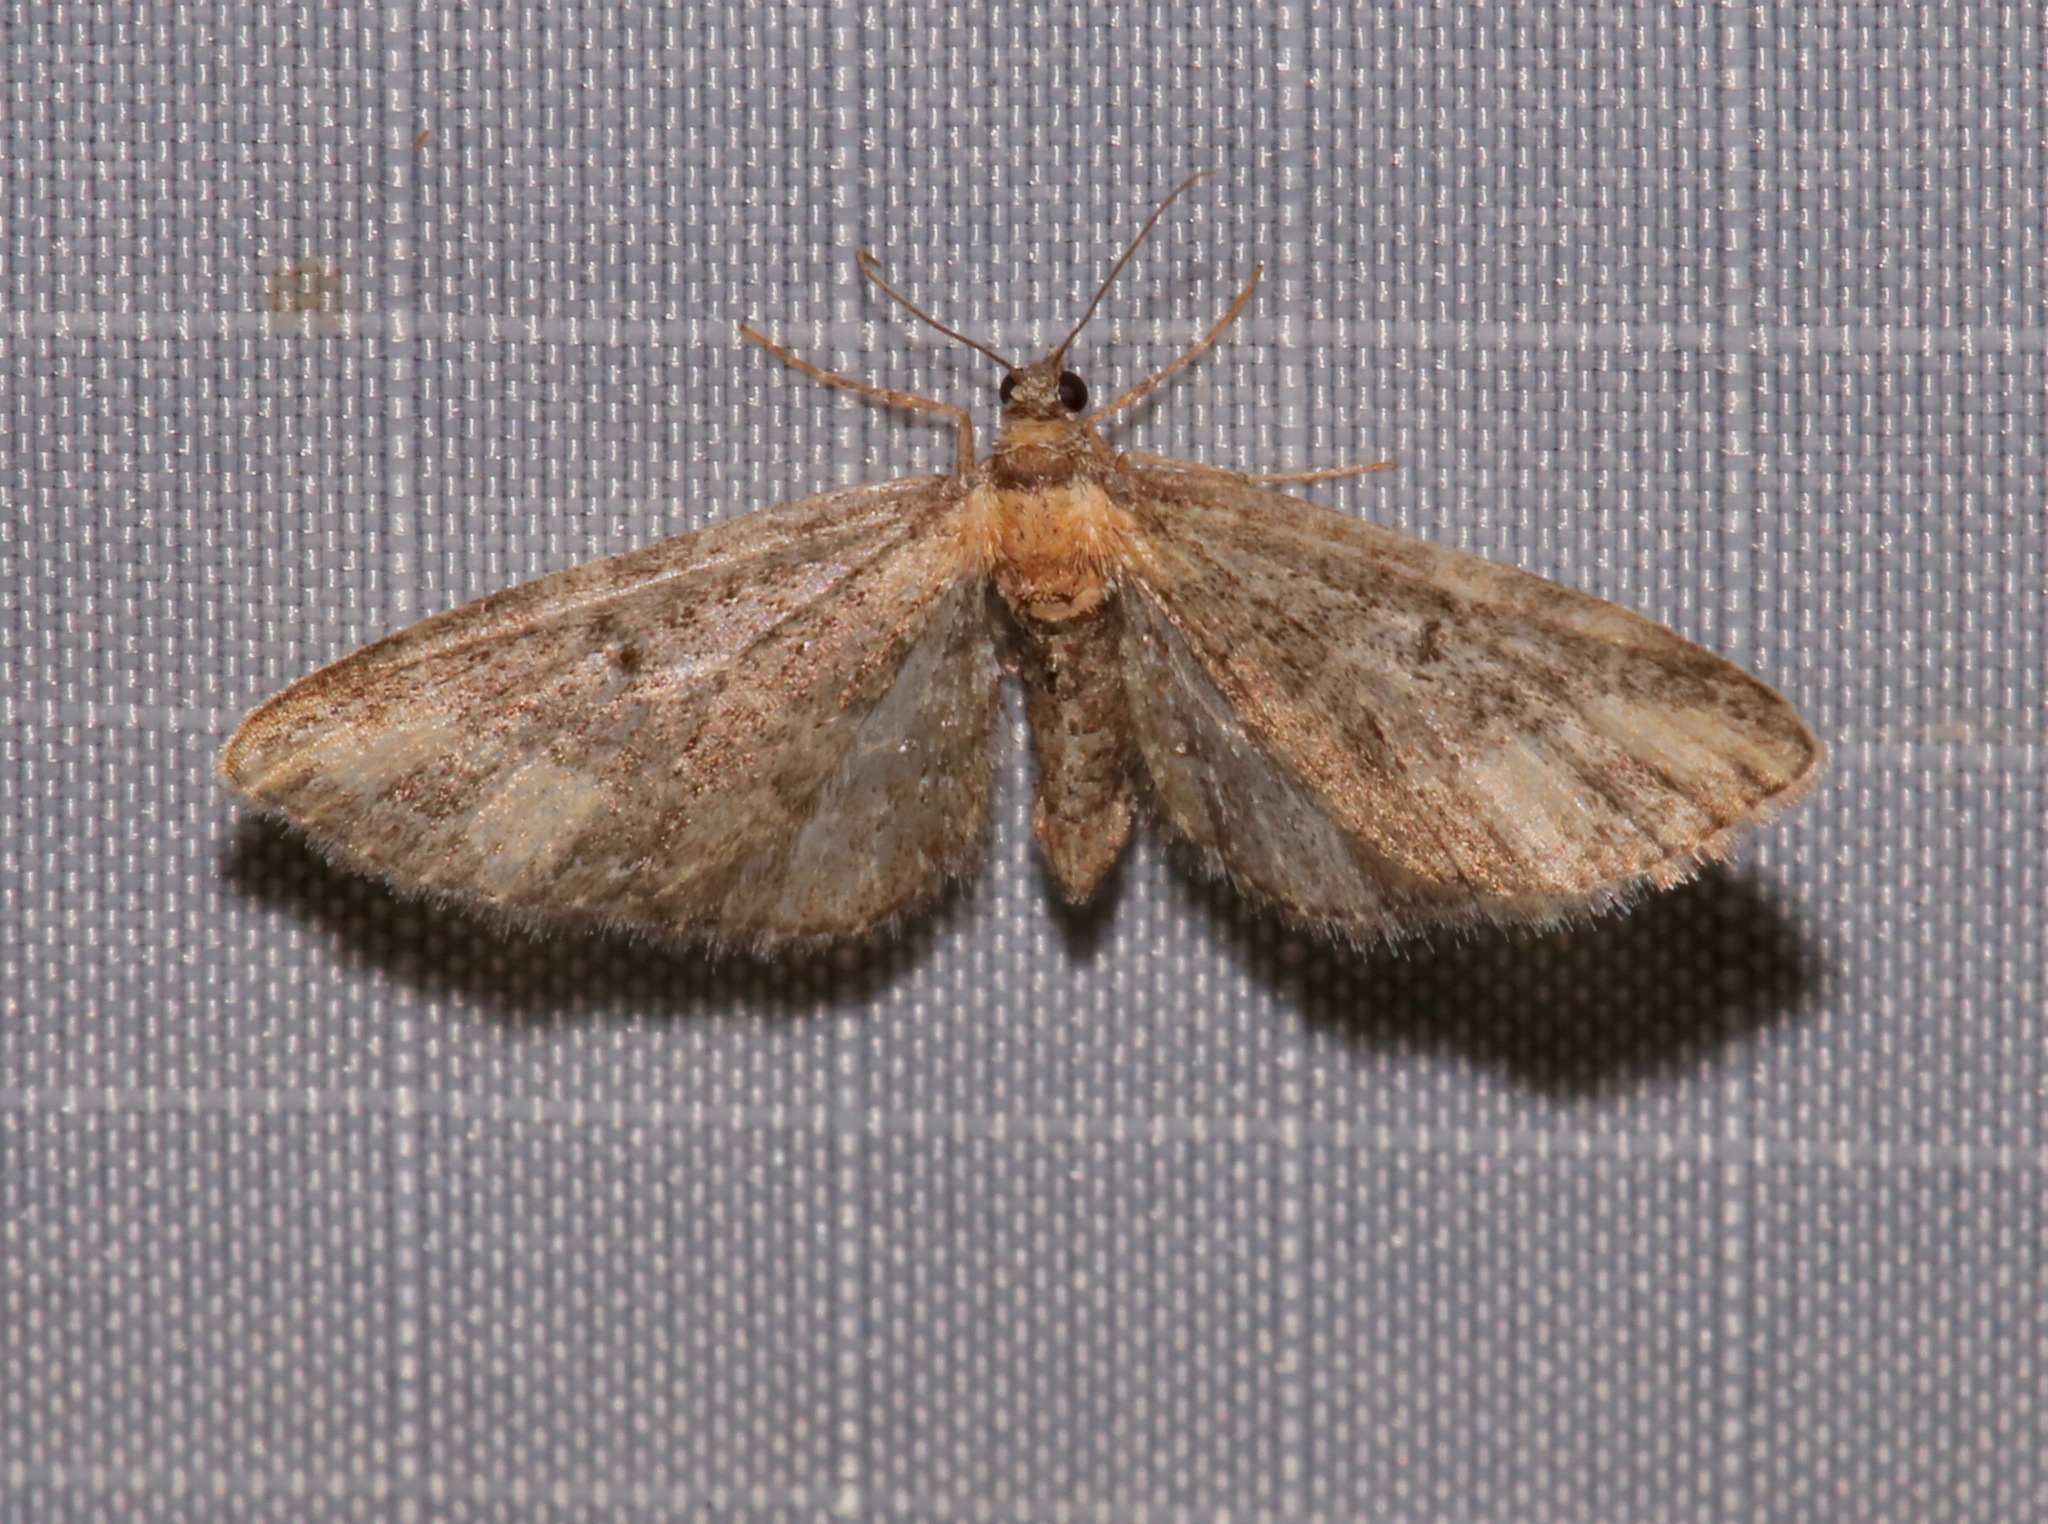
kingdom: Animalia
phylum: Arthropoda
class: Insecta
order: Lepidoptera
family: Geometridae
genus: Eupithecia
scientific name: Eupithecia flavigutta
